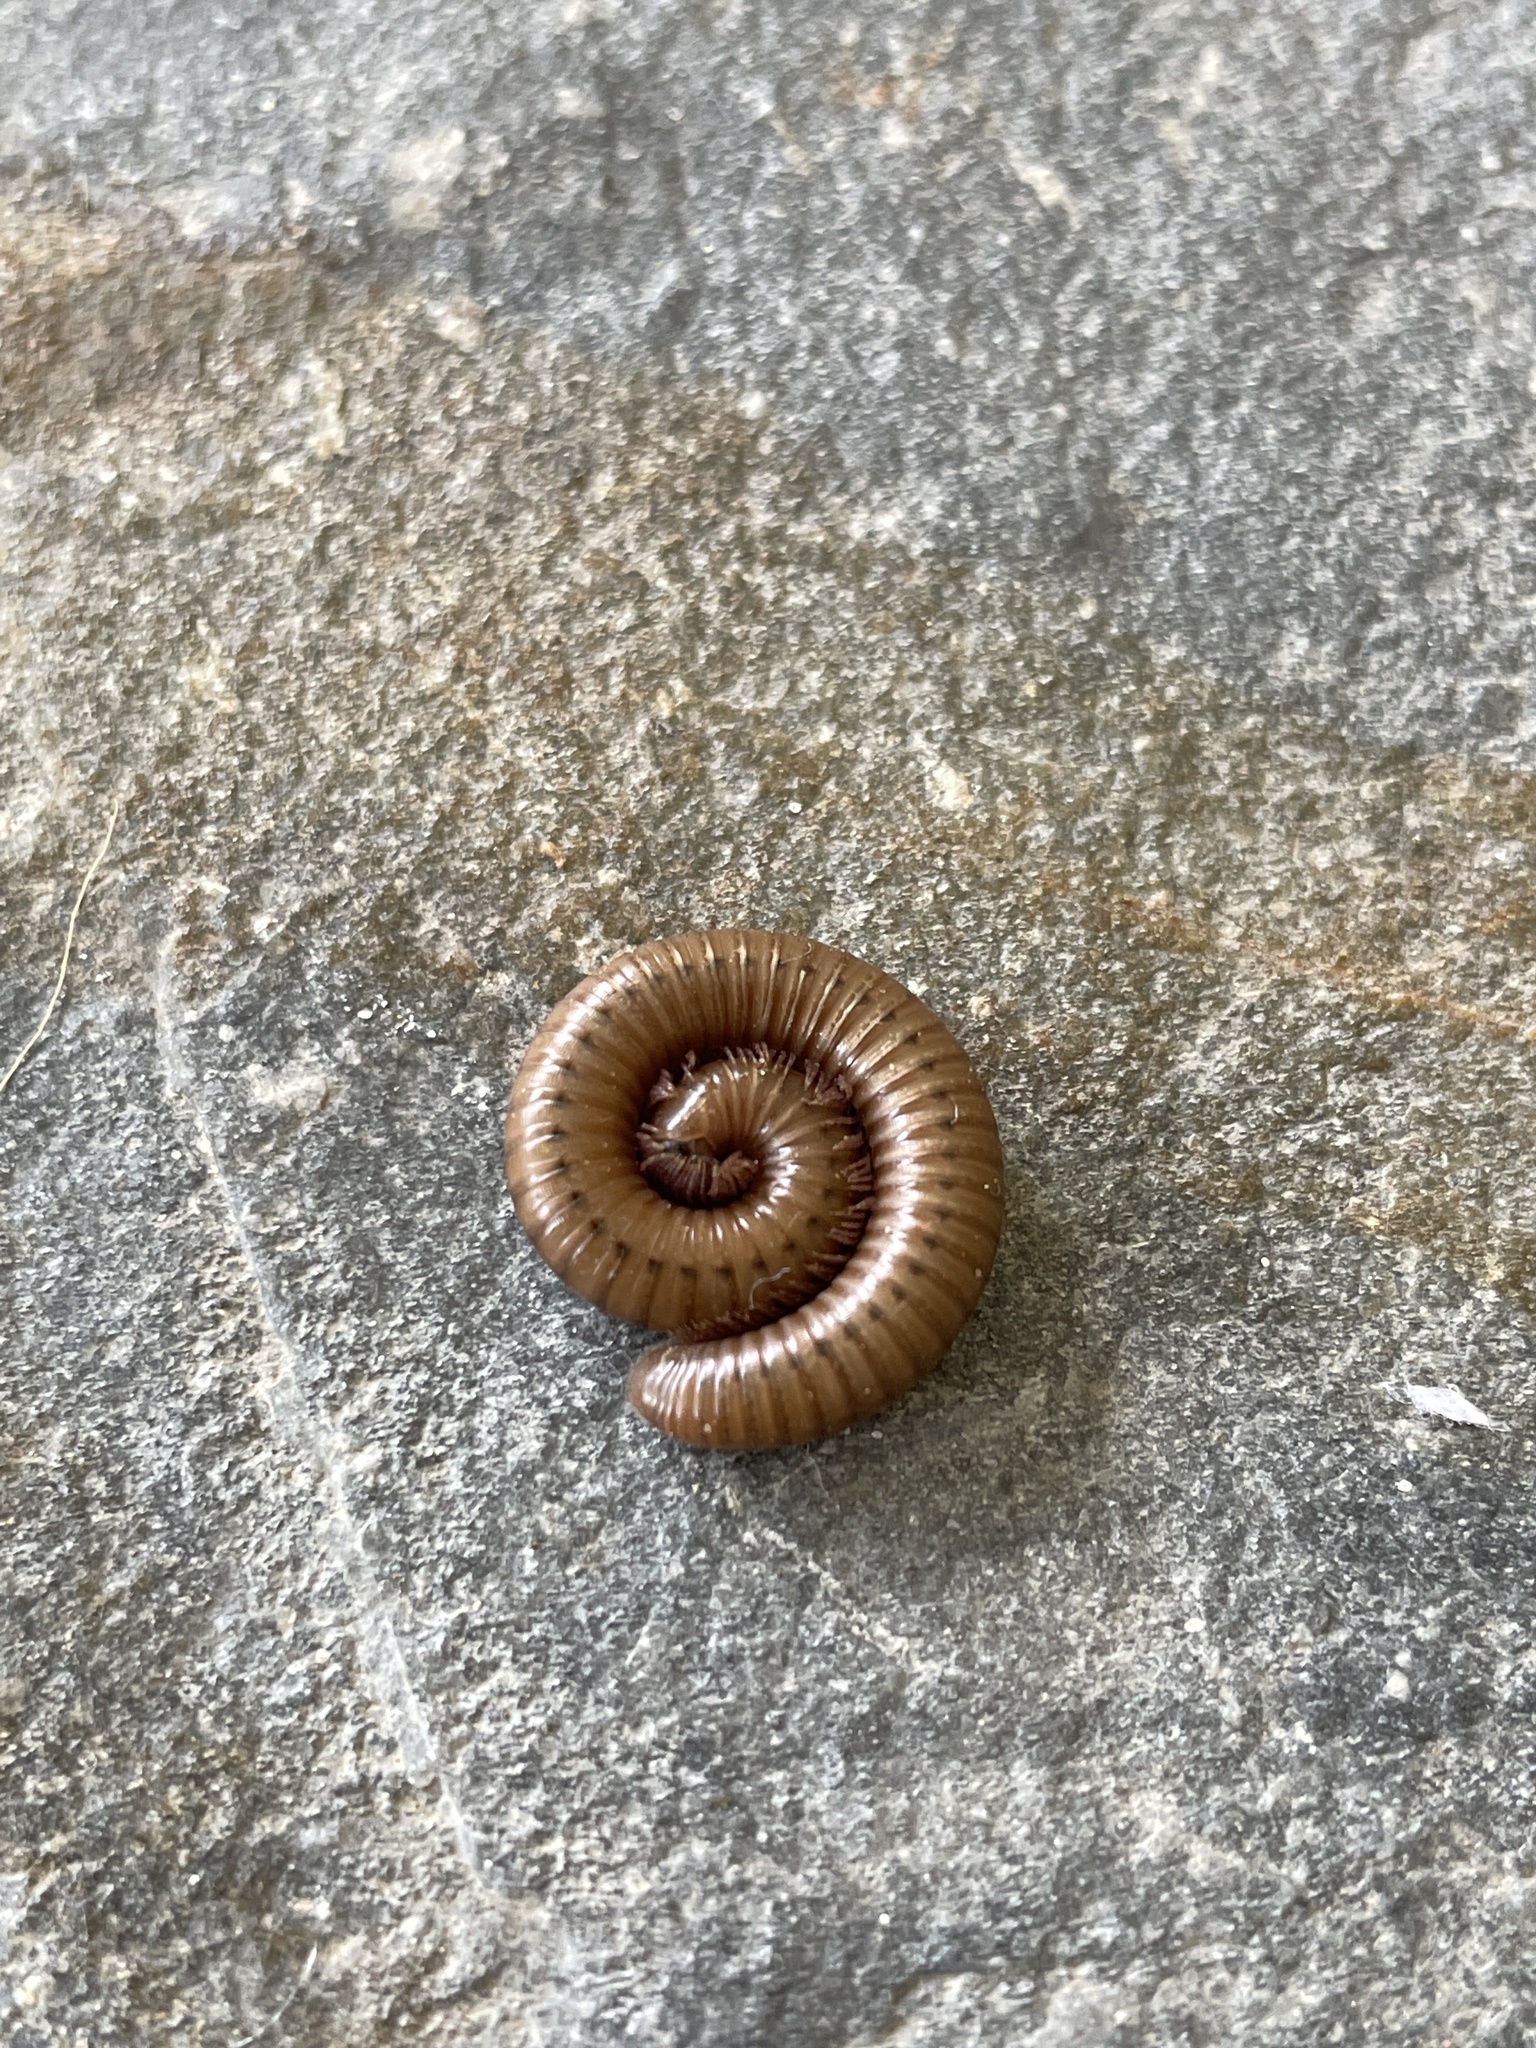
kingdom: Animalia
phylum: Arthropoda
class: Diplopoda
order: Julida
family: Julidae
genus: Pachyiulus
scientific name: Pachyiulus cattarensis
